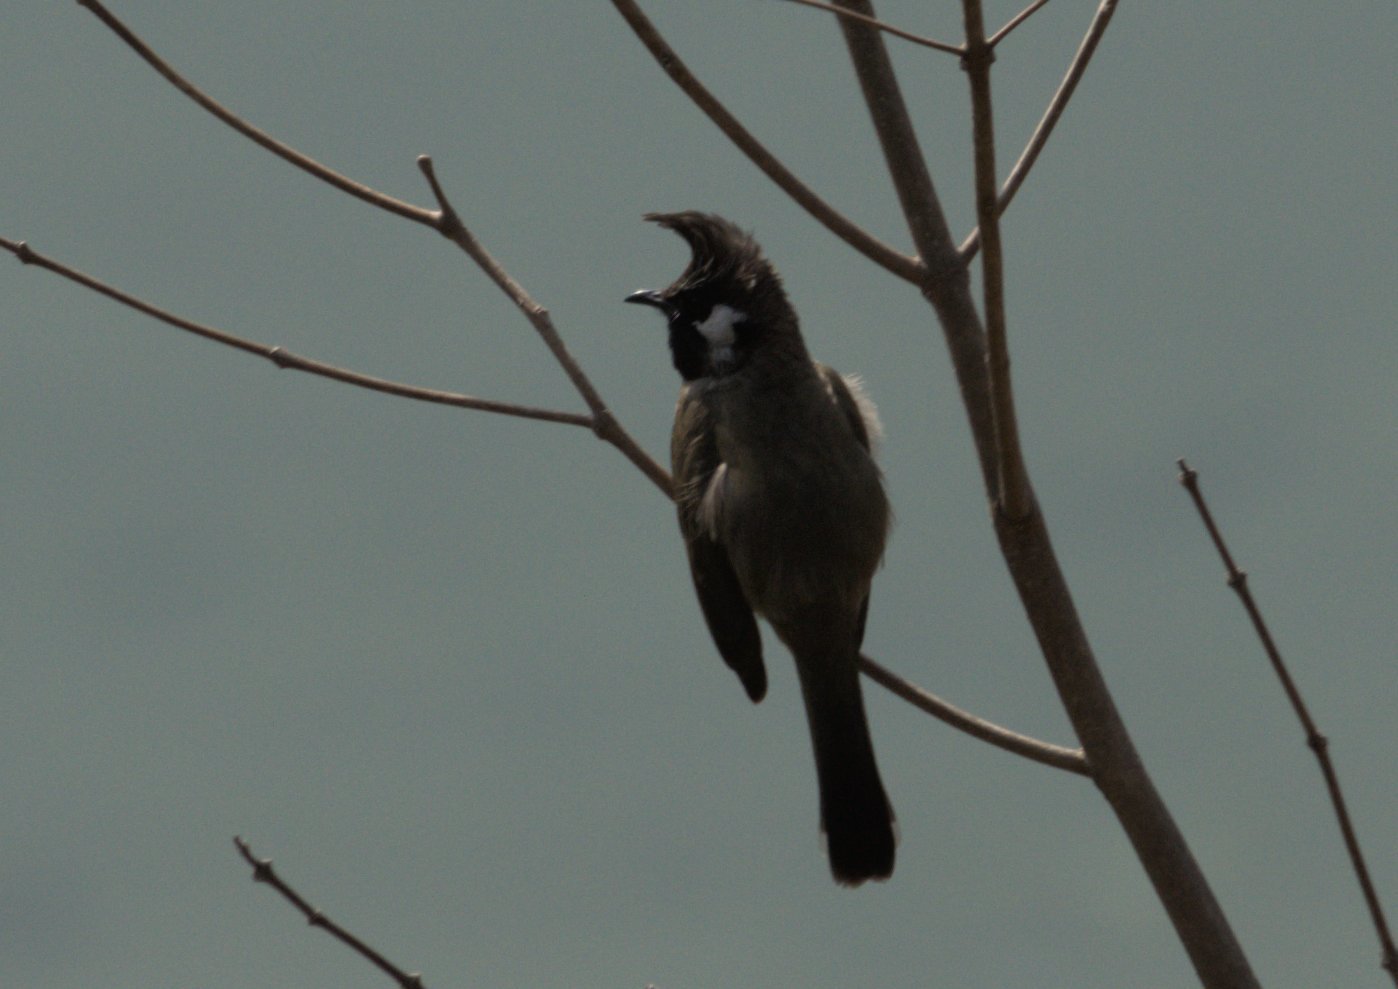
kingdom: Animalia
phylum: Chordata
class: Aves
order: Passeriformes
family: Pycnonotidae
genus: Pycnonotus
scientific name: Pycnonotus leucogenys
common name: Himalayan bulbul
